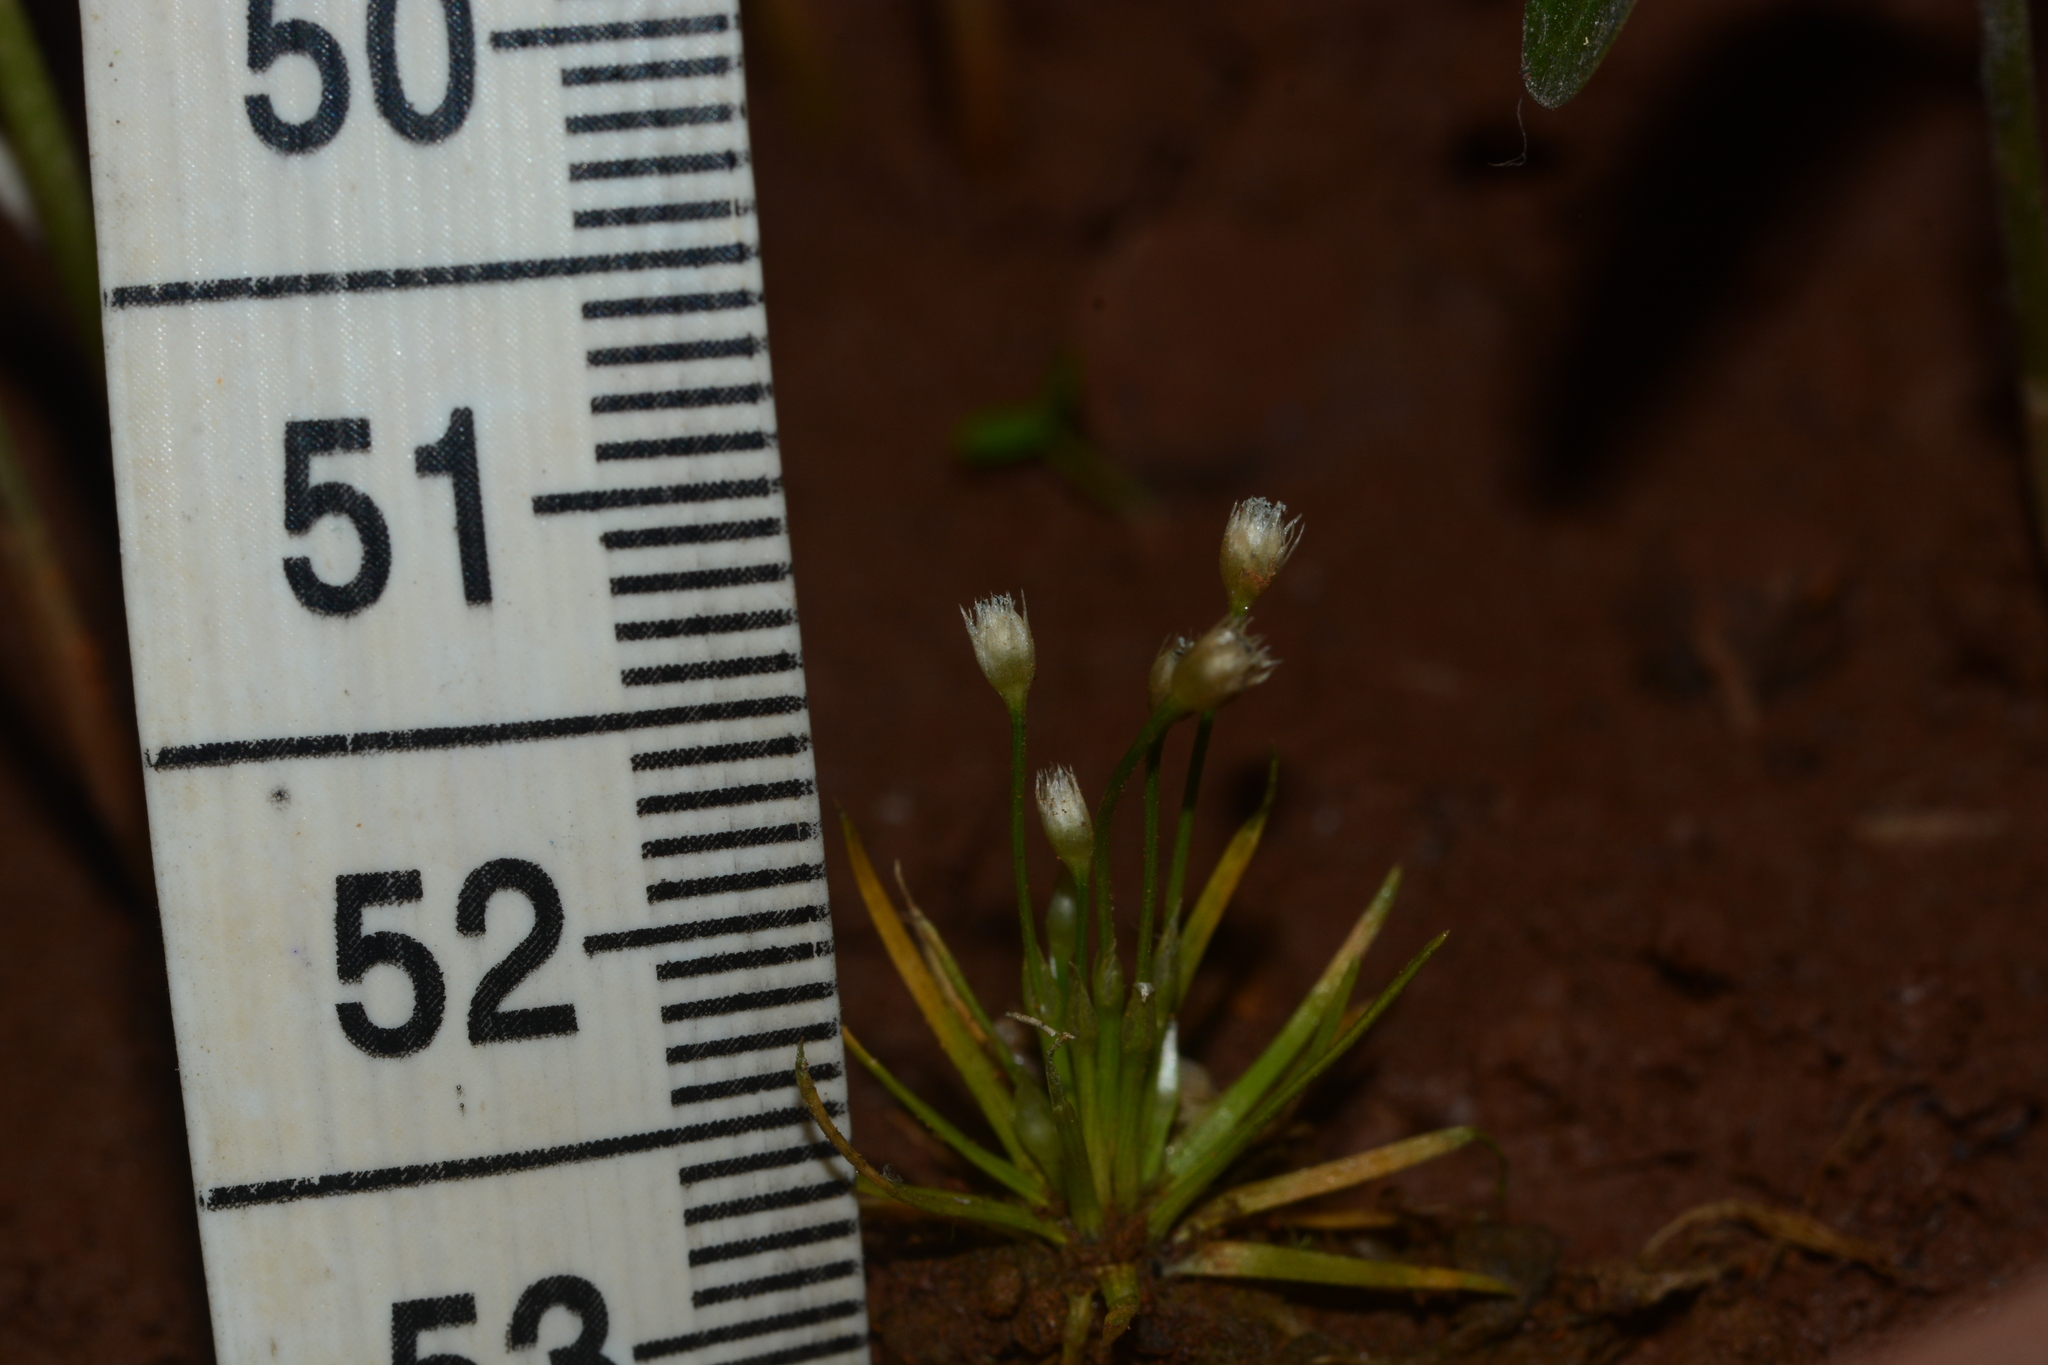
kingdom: Plantae
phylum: Tracheophyta
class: Liliopsida
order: Poales
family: Eriocaulaceae
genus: Eriocaulon
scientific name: Eriocaulon minutum
